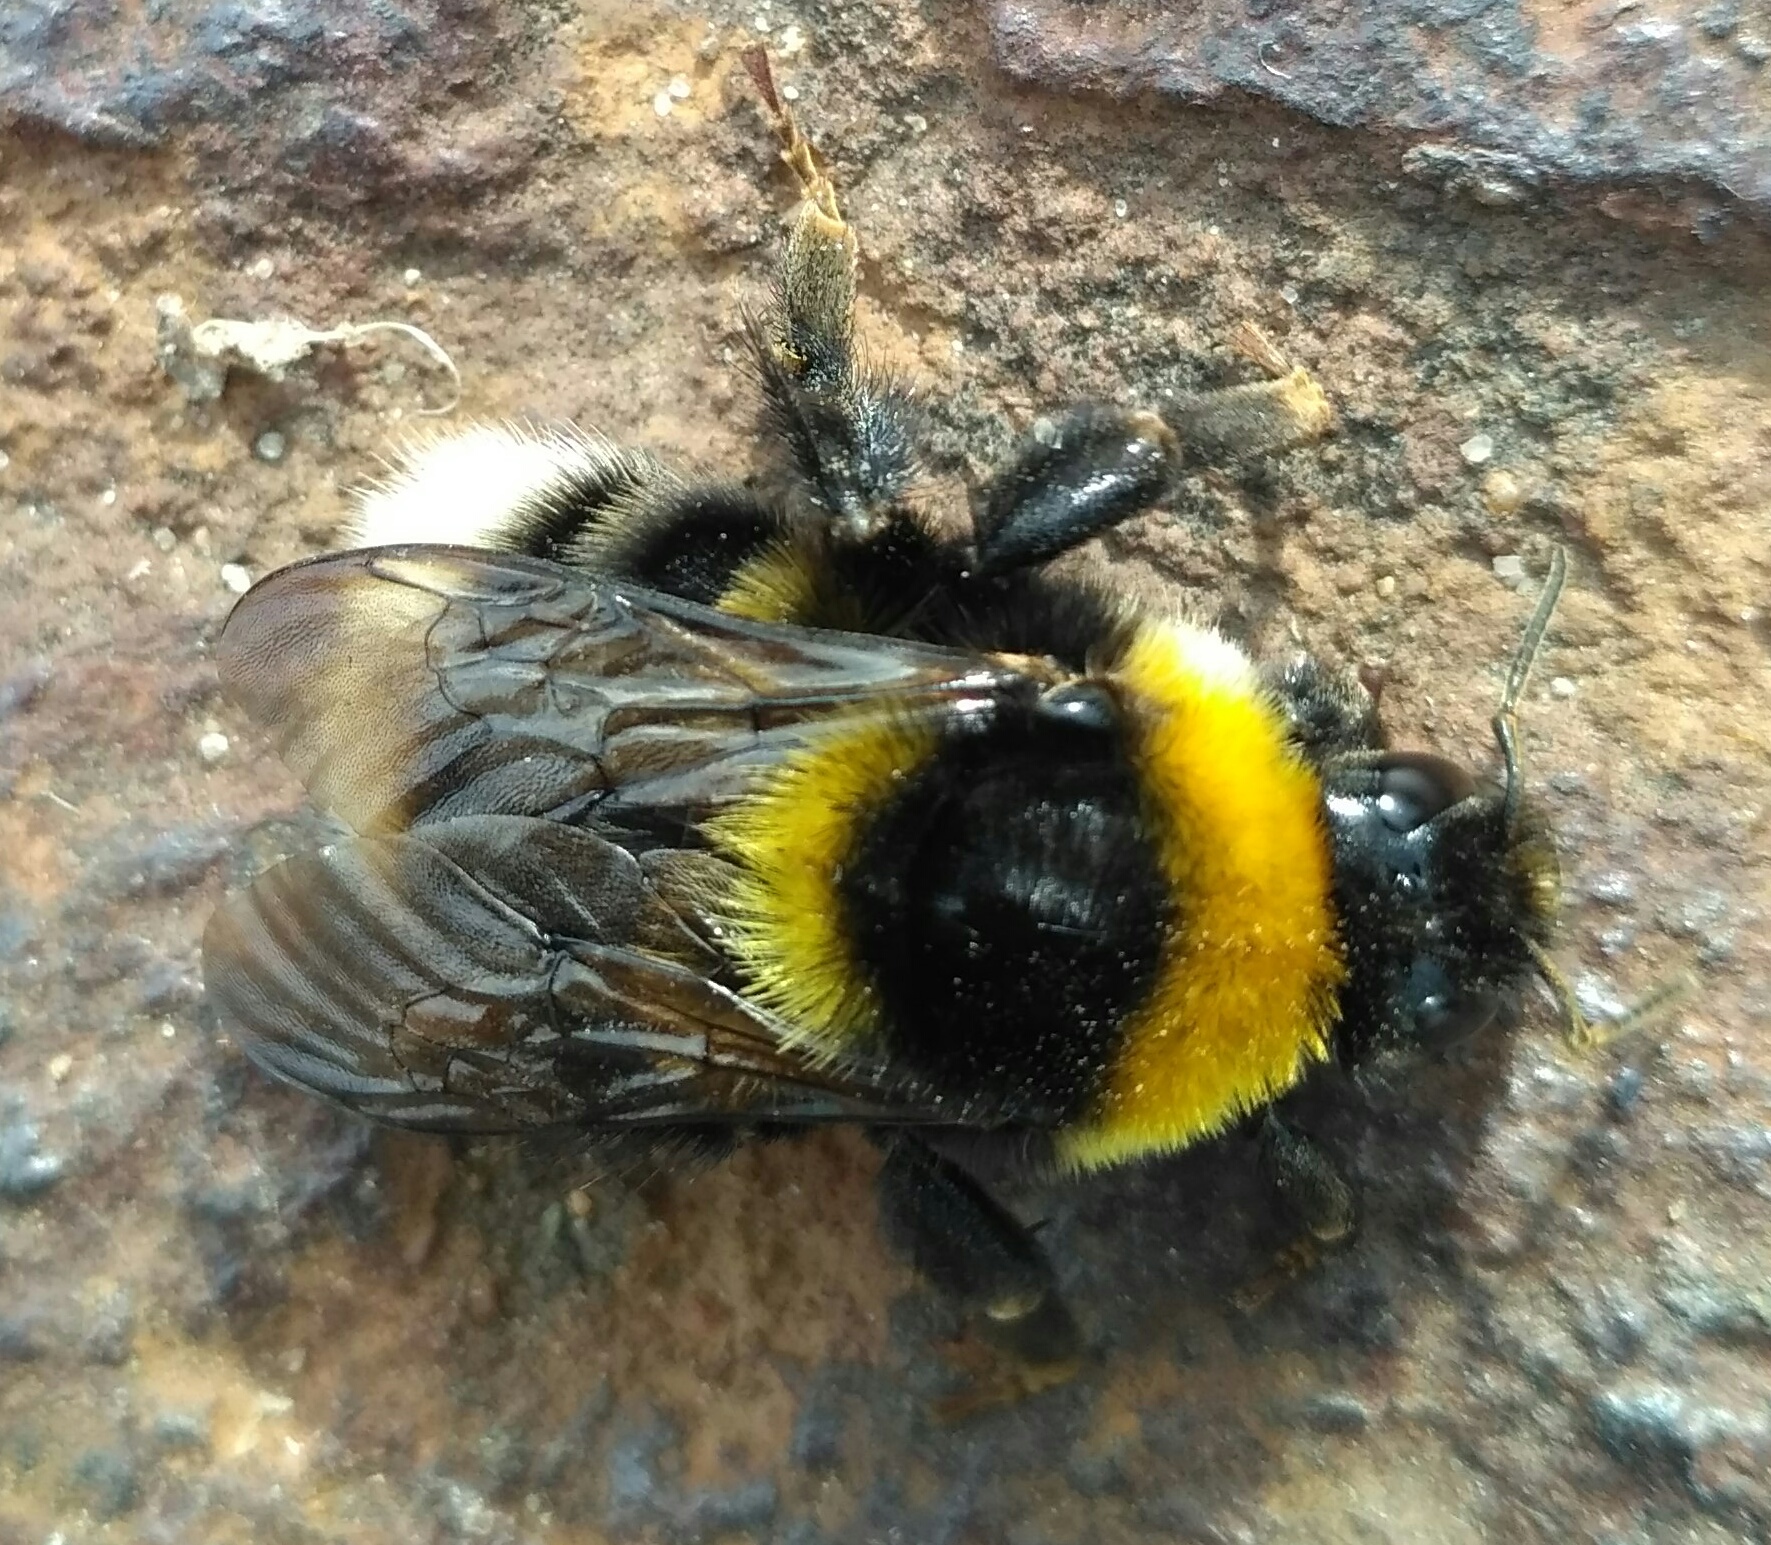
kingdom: Animalia
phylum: Arthropoda
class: Insecta
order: Hymenoptera
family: Apidae
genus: Bombus
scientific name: Bombus subterraneus
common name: Short-haired humble-bee
